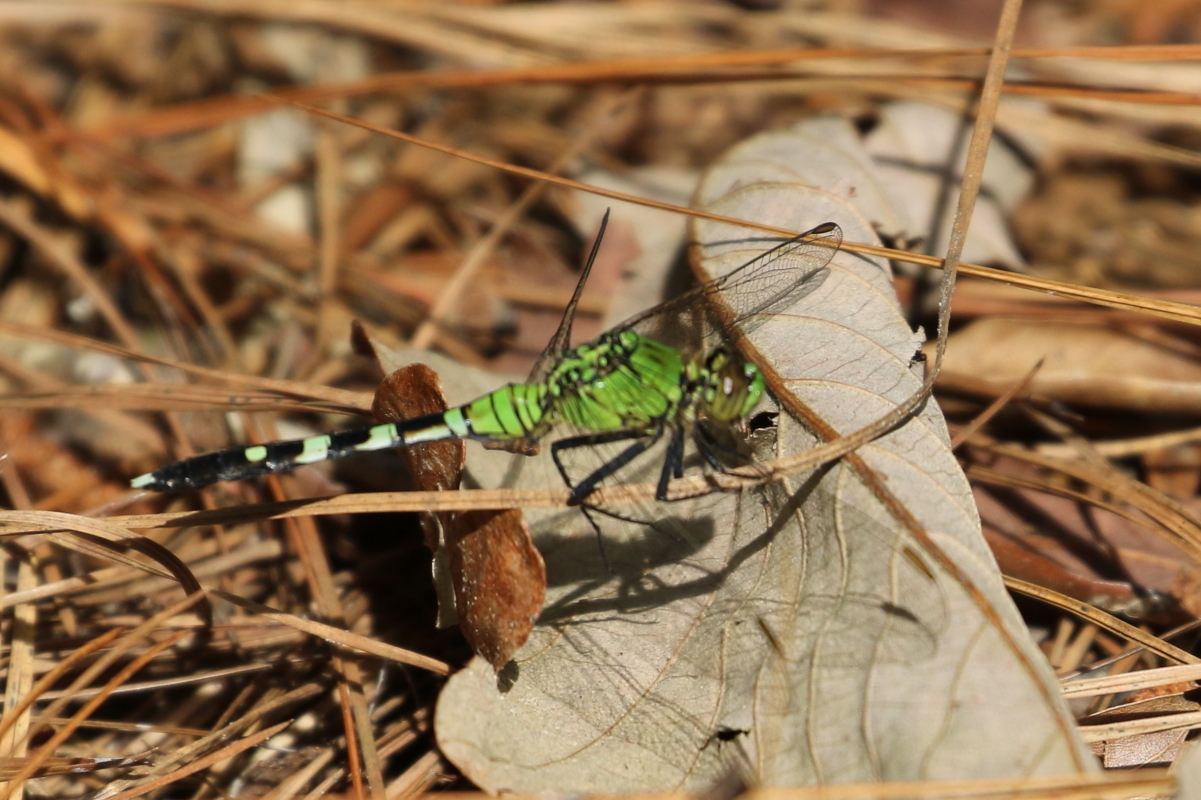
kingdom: Animalia
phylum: Arthropoda
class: Insecta
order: Odonata
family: Libellulidae
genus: Erythemis
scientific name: Erythemis simplicicollis
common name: Eastern pondhawk
